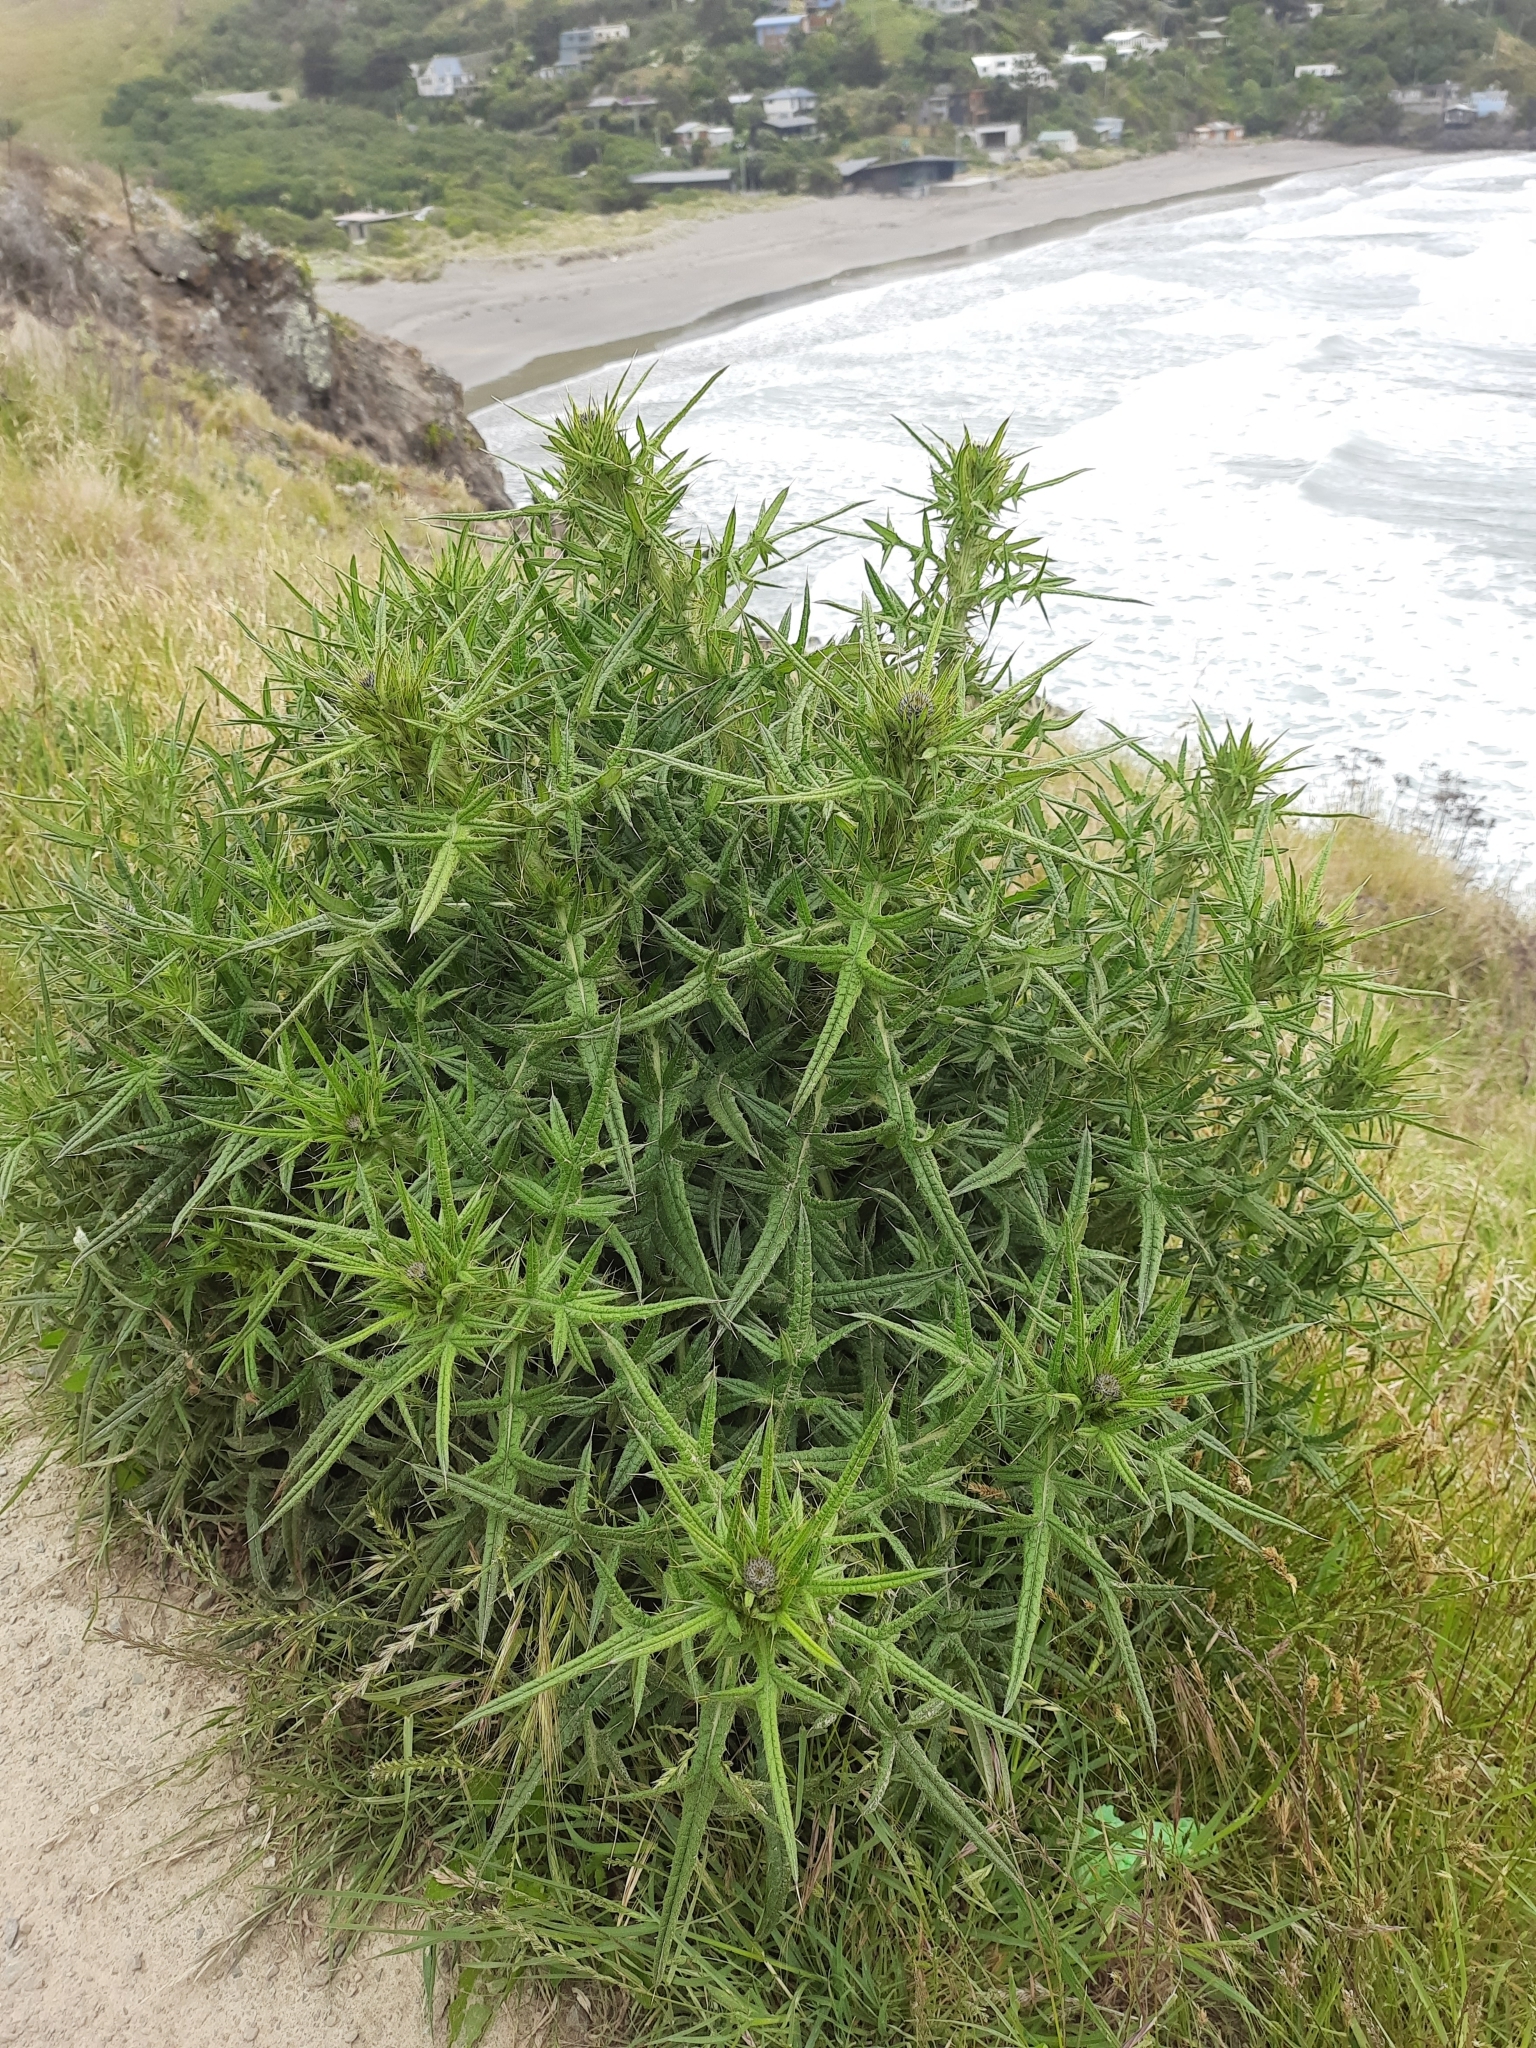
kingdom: Plantae
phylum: Tracheophyta
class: Magnoliopsida
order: Asterales
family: Asteraceae
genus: Cirsium
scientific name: Cirsium vulgare
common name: Bull thistle
